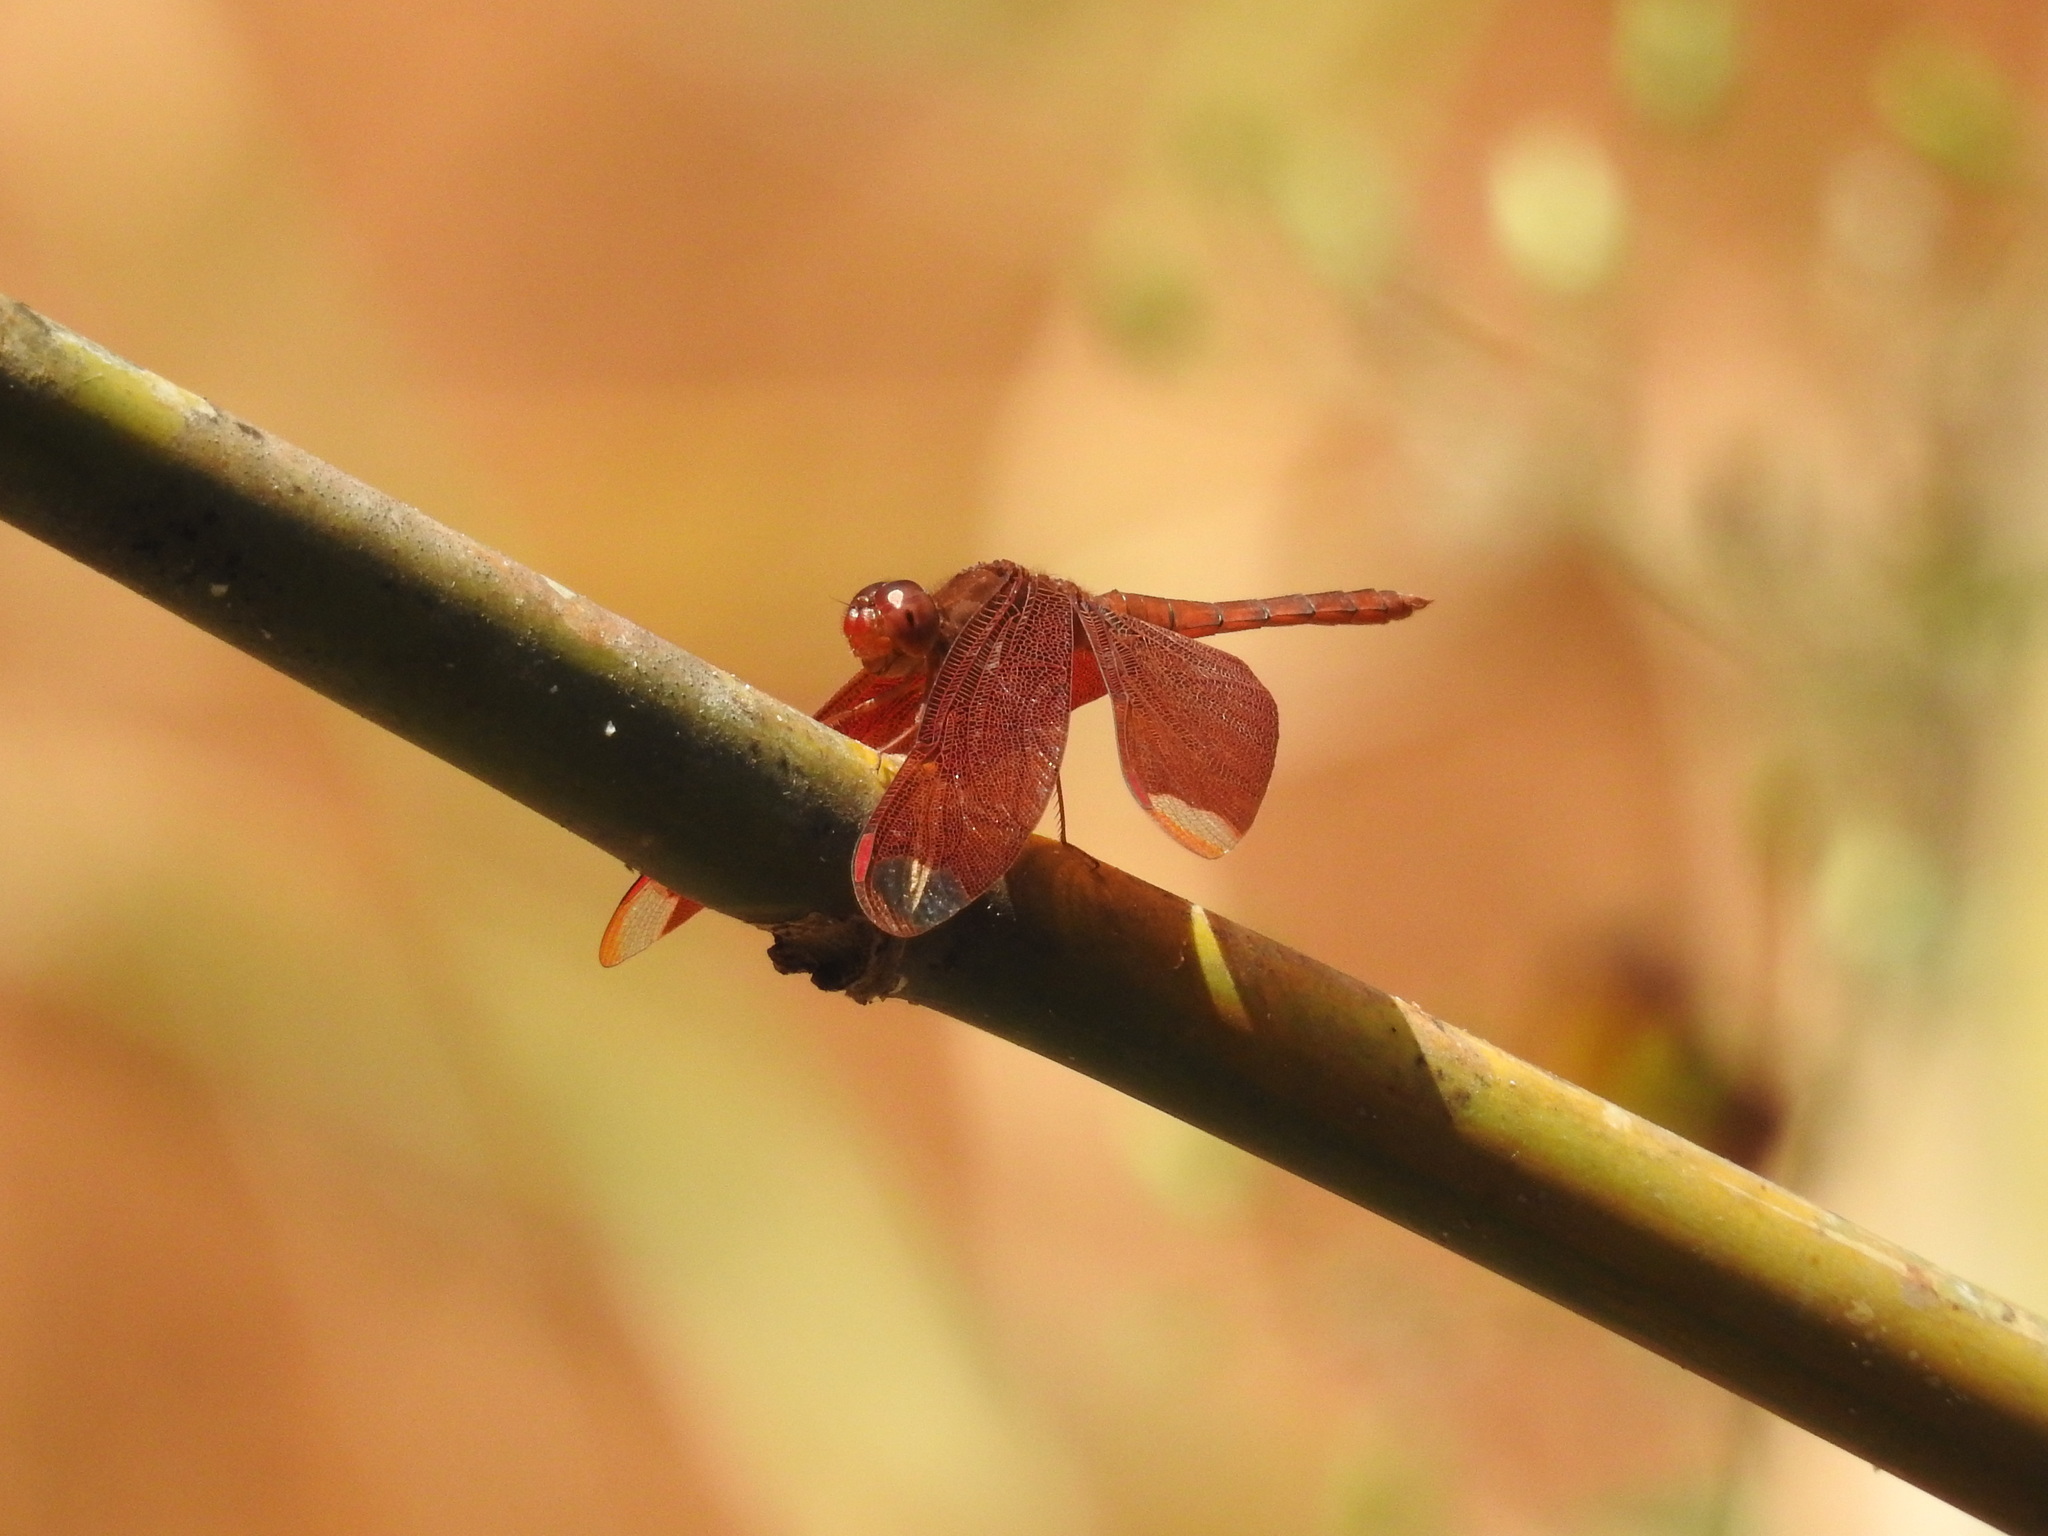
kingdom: Animalia
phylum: Arthropoda
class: Insecta
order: Odonata
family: Libellulidae
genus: Neurothemis
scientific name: Neurothemis fulvia
